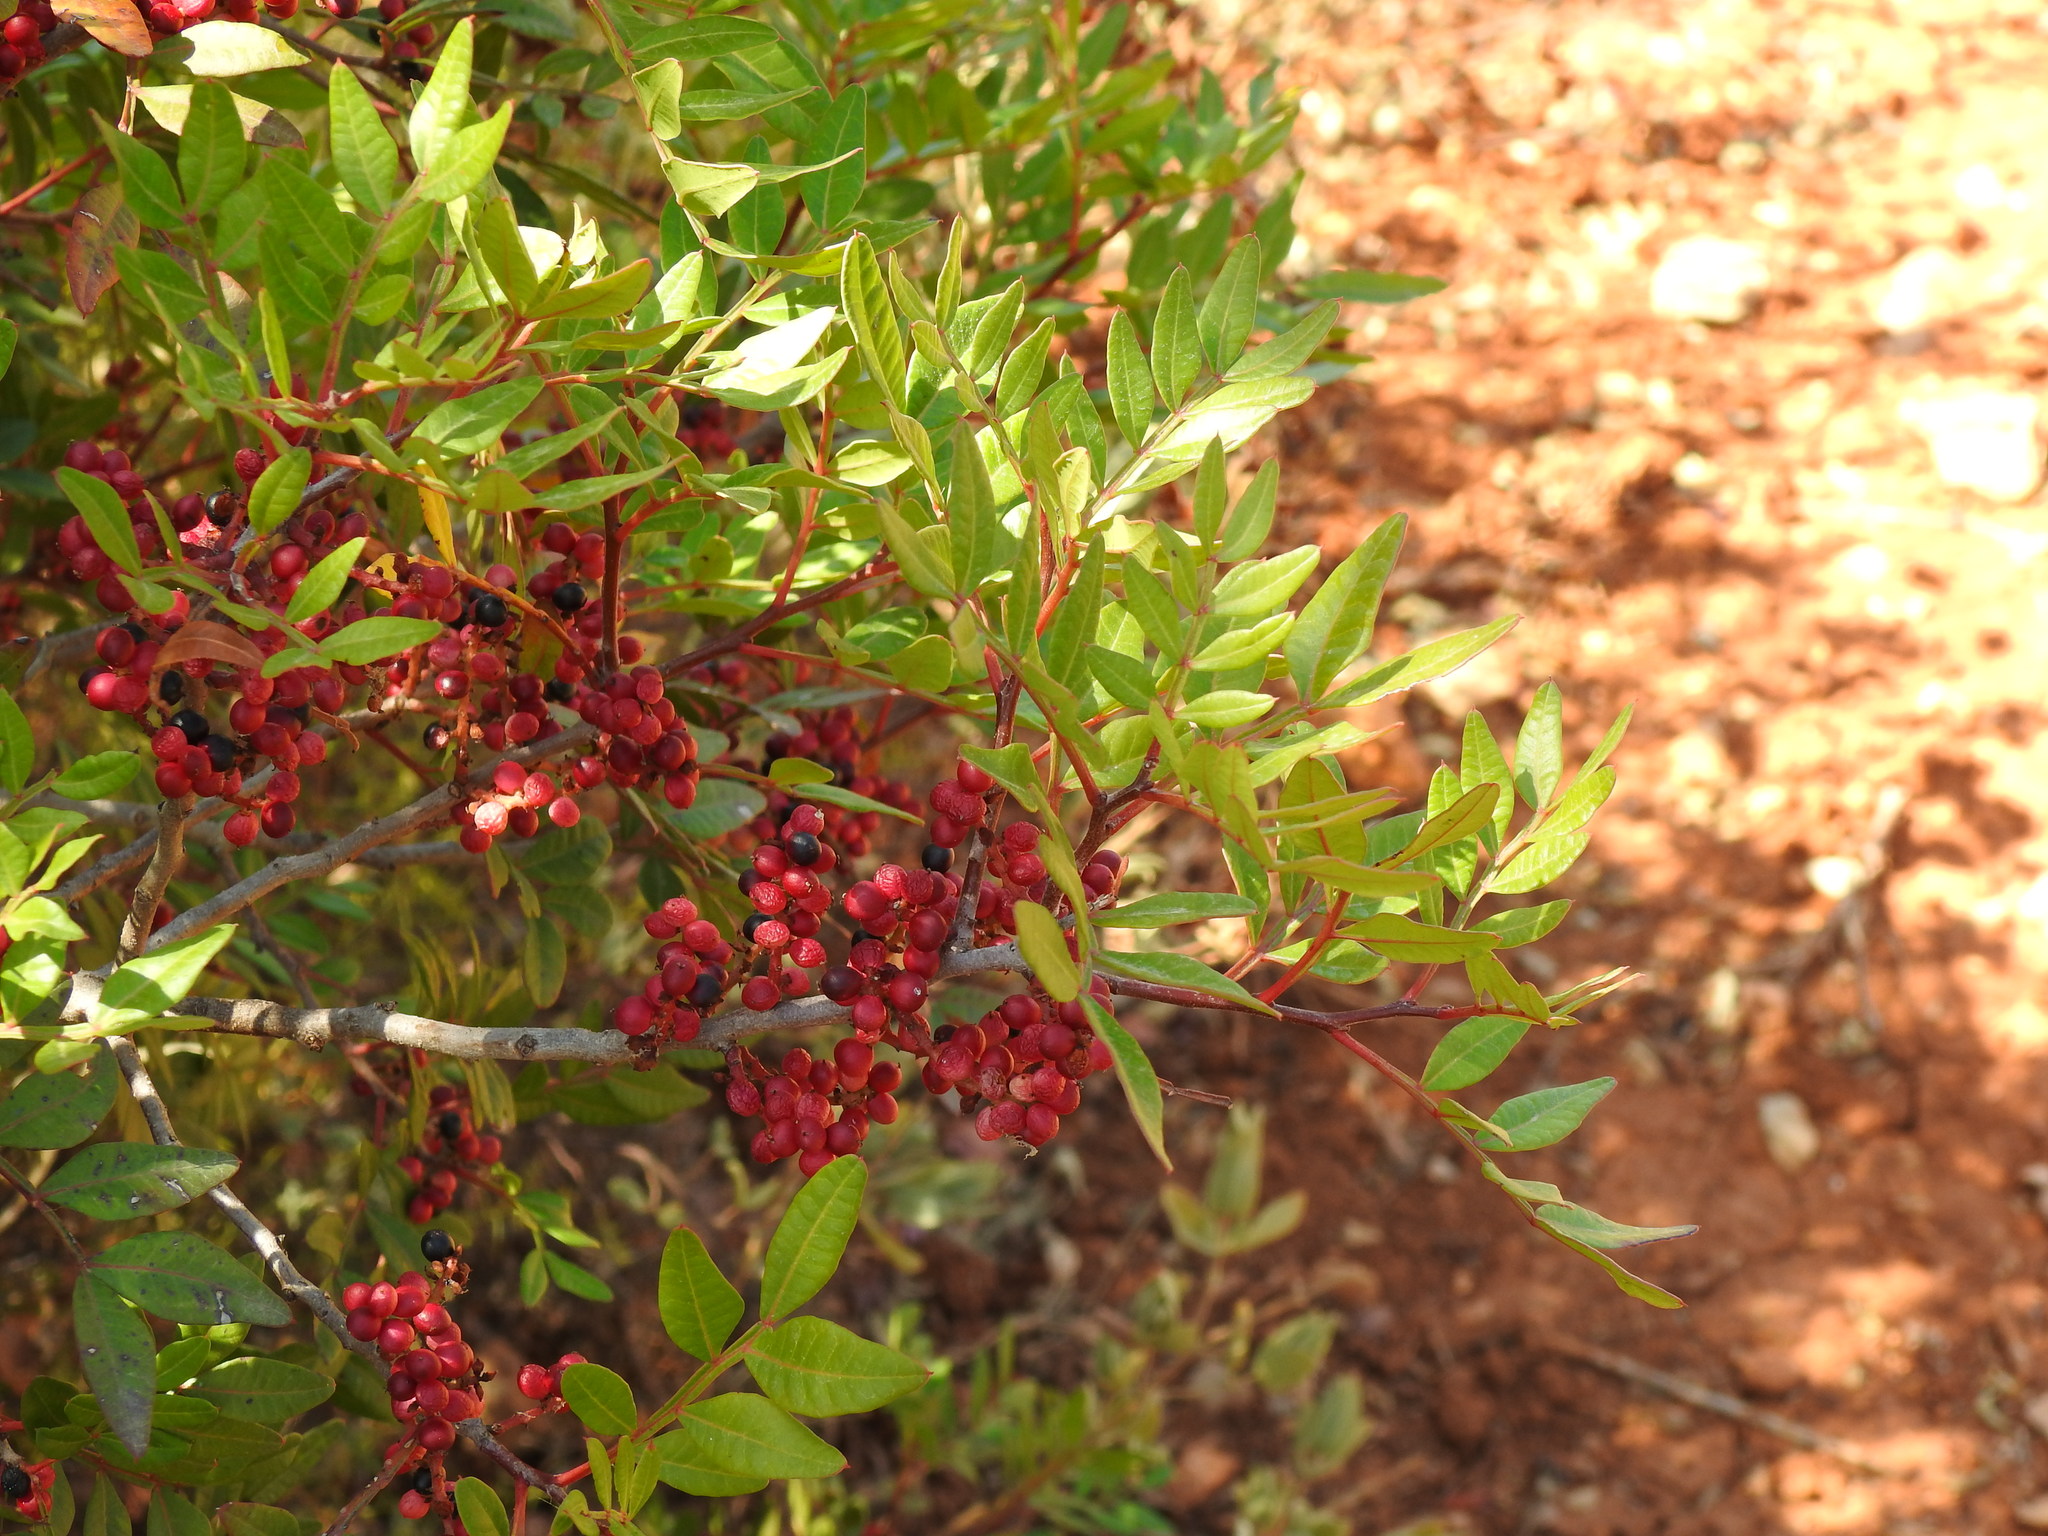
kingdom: Plantae
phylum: Tracheophyta
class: Magnoliopsida
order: Sapindales
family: Anacardiaceae
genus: Pistacia
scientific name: Pistacia lentiscus
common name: Lentisk
